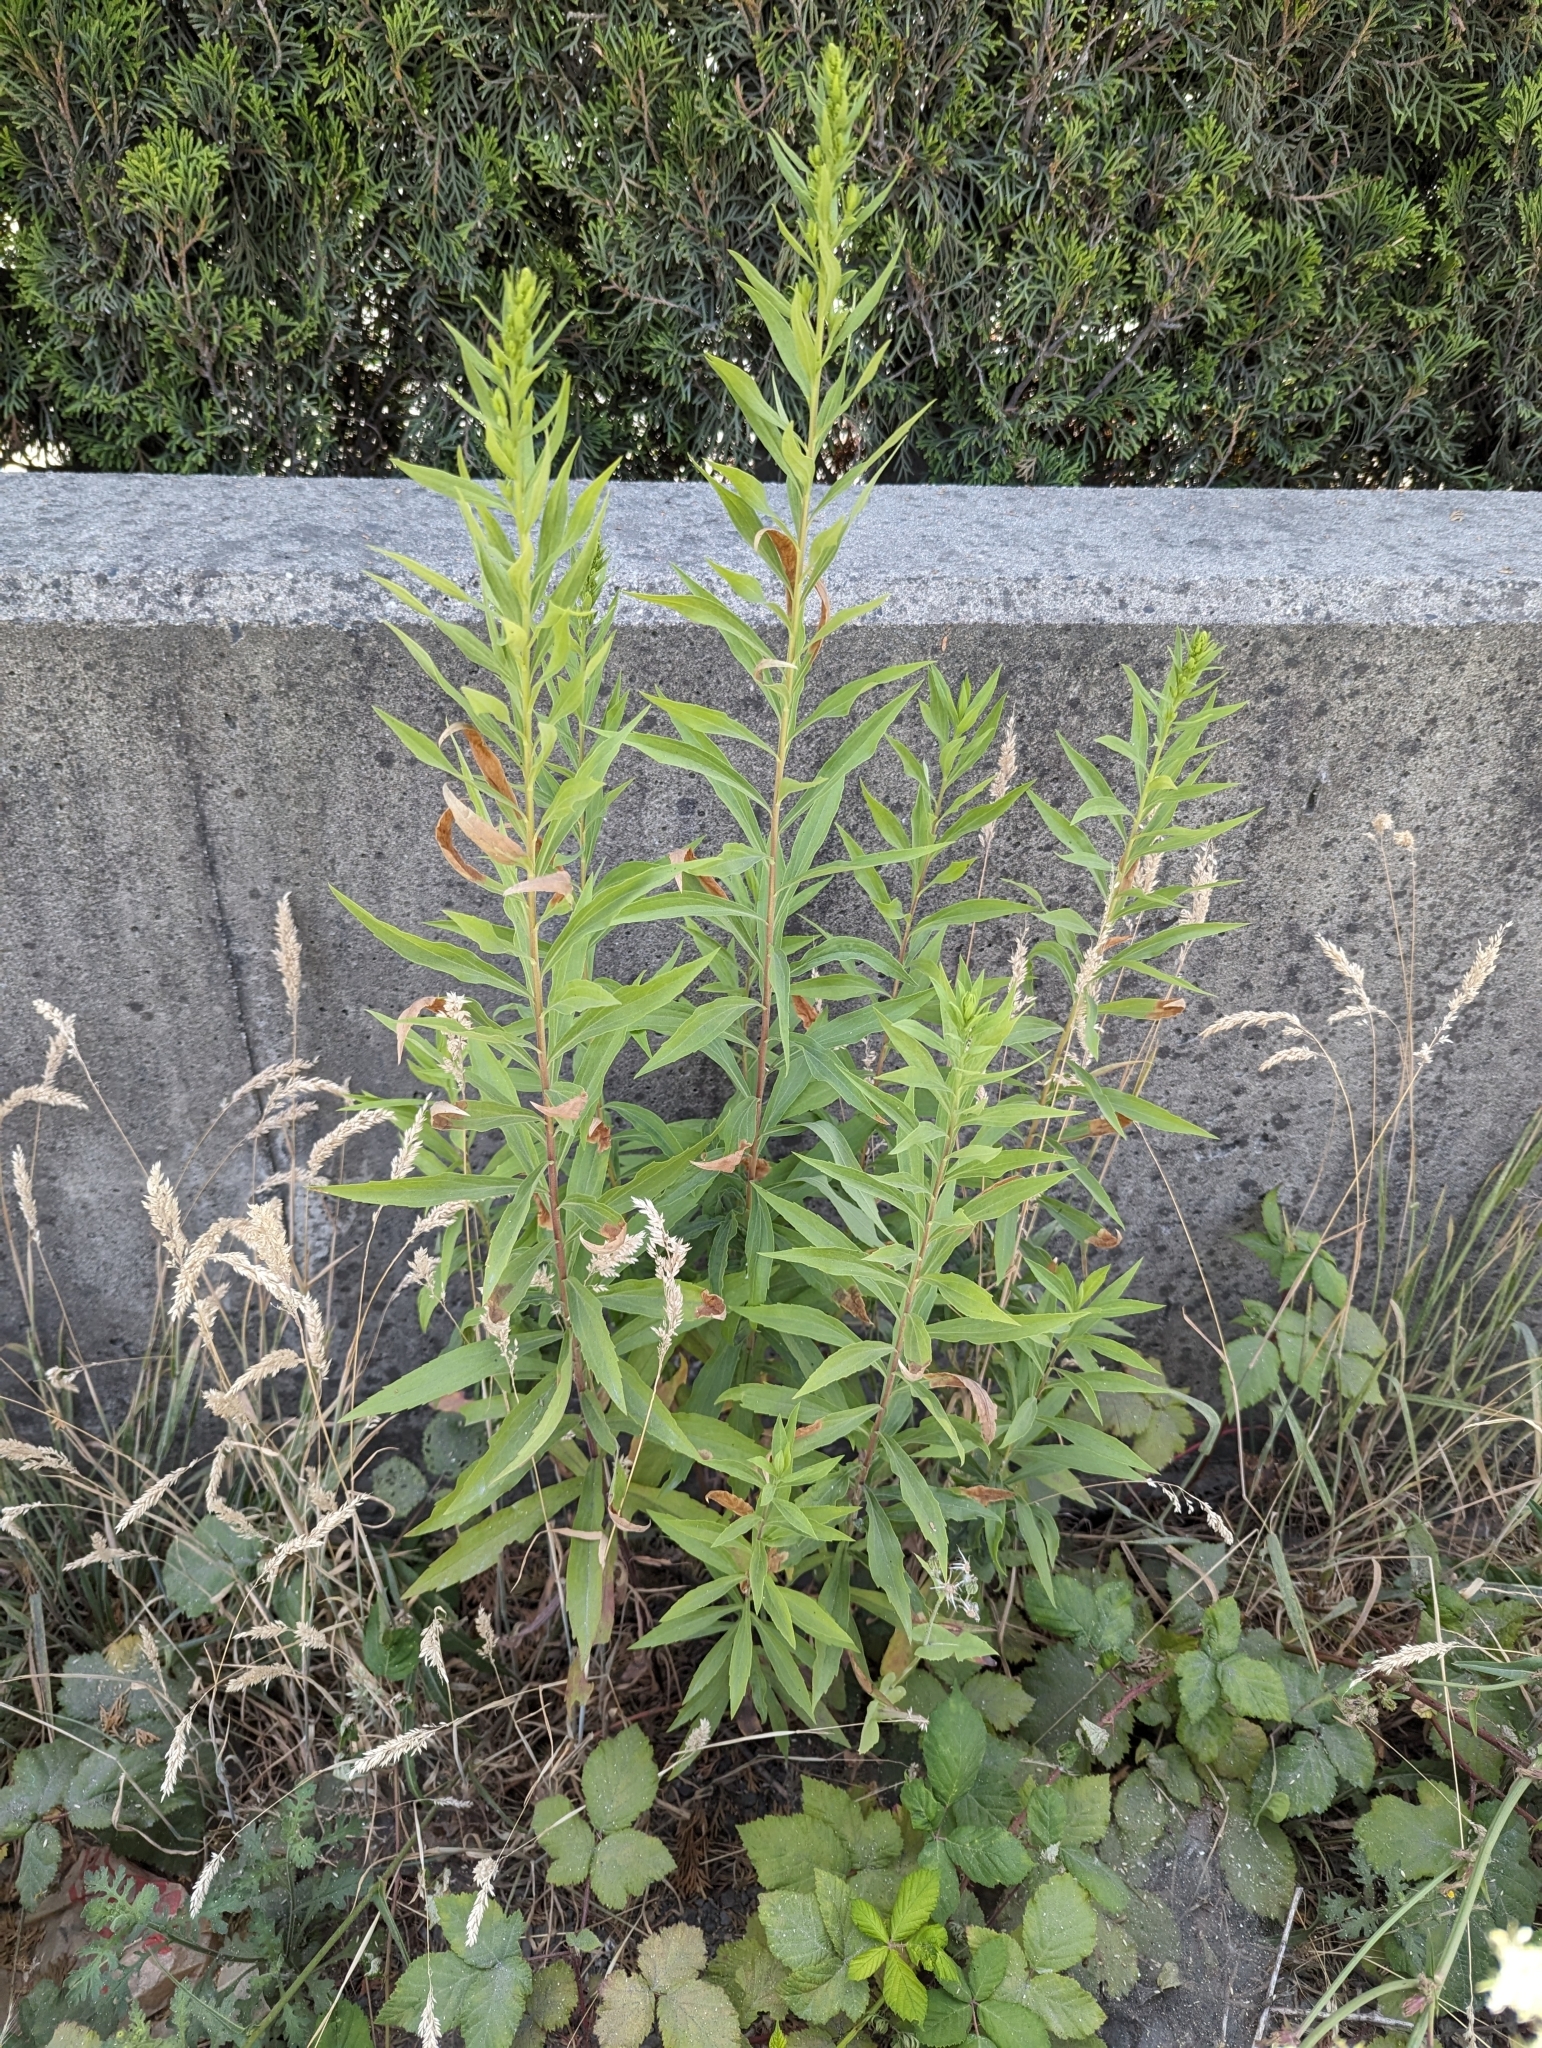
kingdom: Plantae
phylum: Tracheophyta
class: Magnoliopsida
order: Myrtales
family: Onagraceae
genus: Chamaenerion
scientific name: Chamaenerion angustifolium
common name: Fireweed
